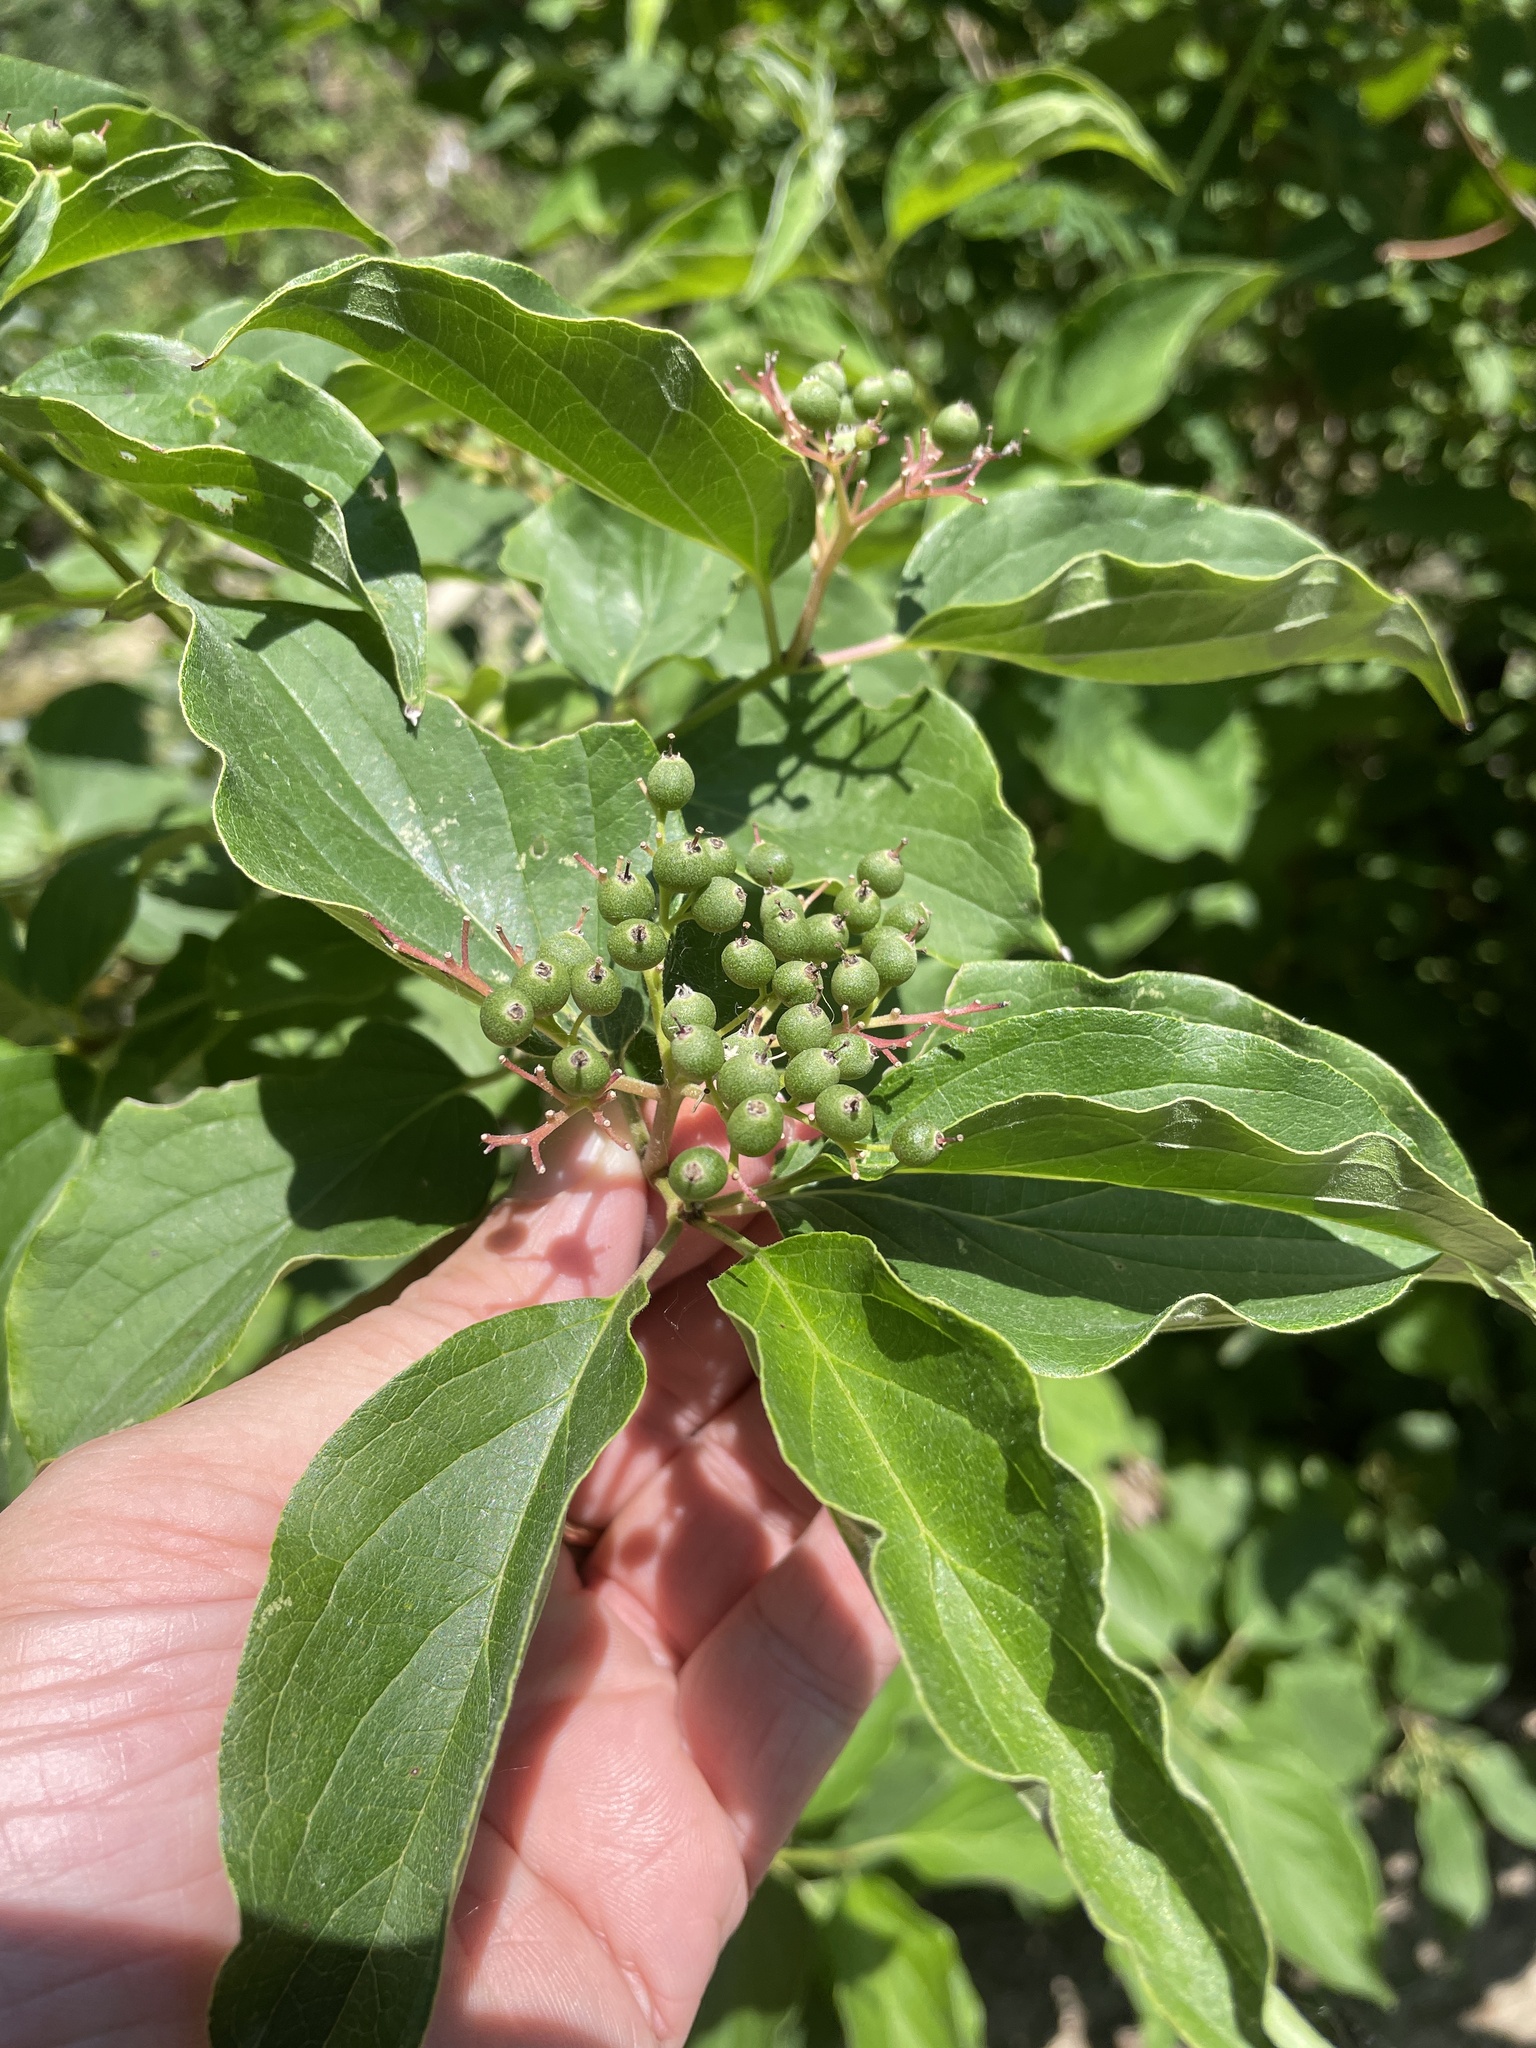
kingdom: Plantae
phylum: Tracheophyta
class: Magnoliopsida
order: Cornales
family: Cornaceae
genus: Cornus
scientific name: Cornus drummondii
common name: Rough-leaf dogwood
